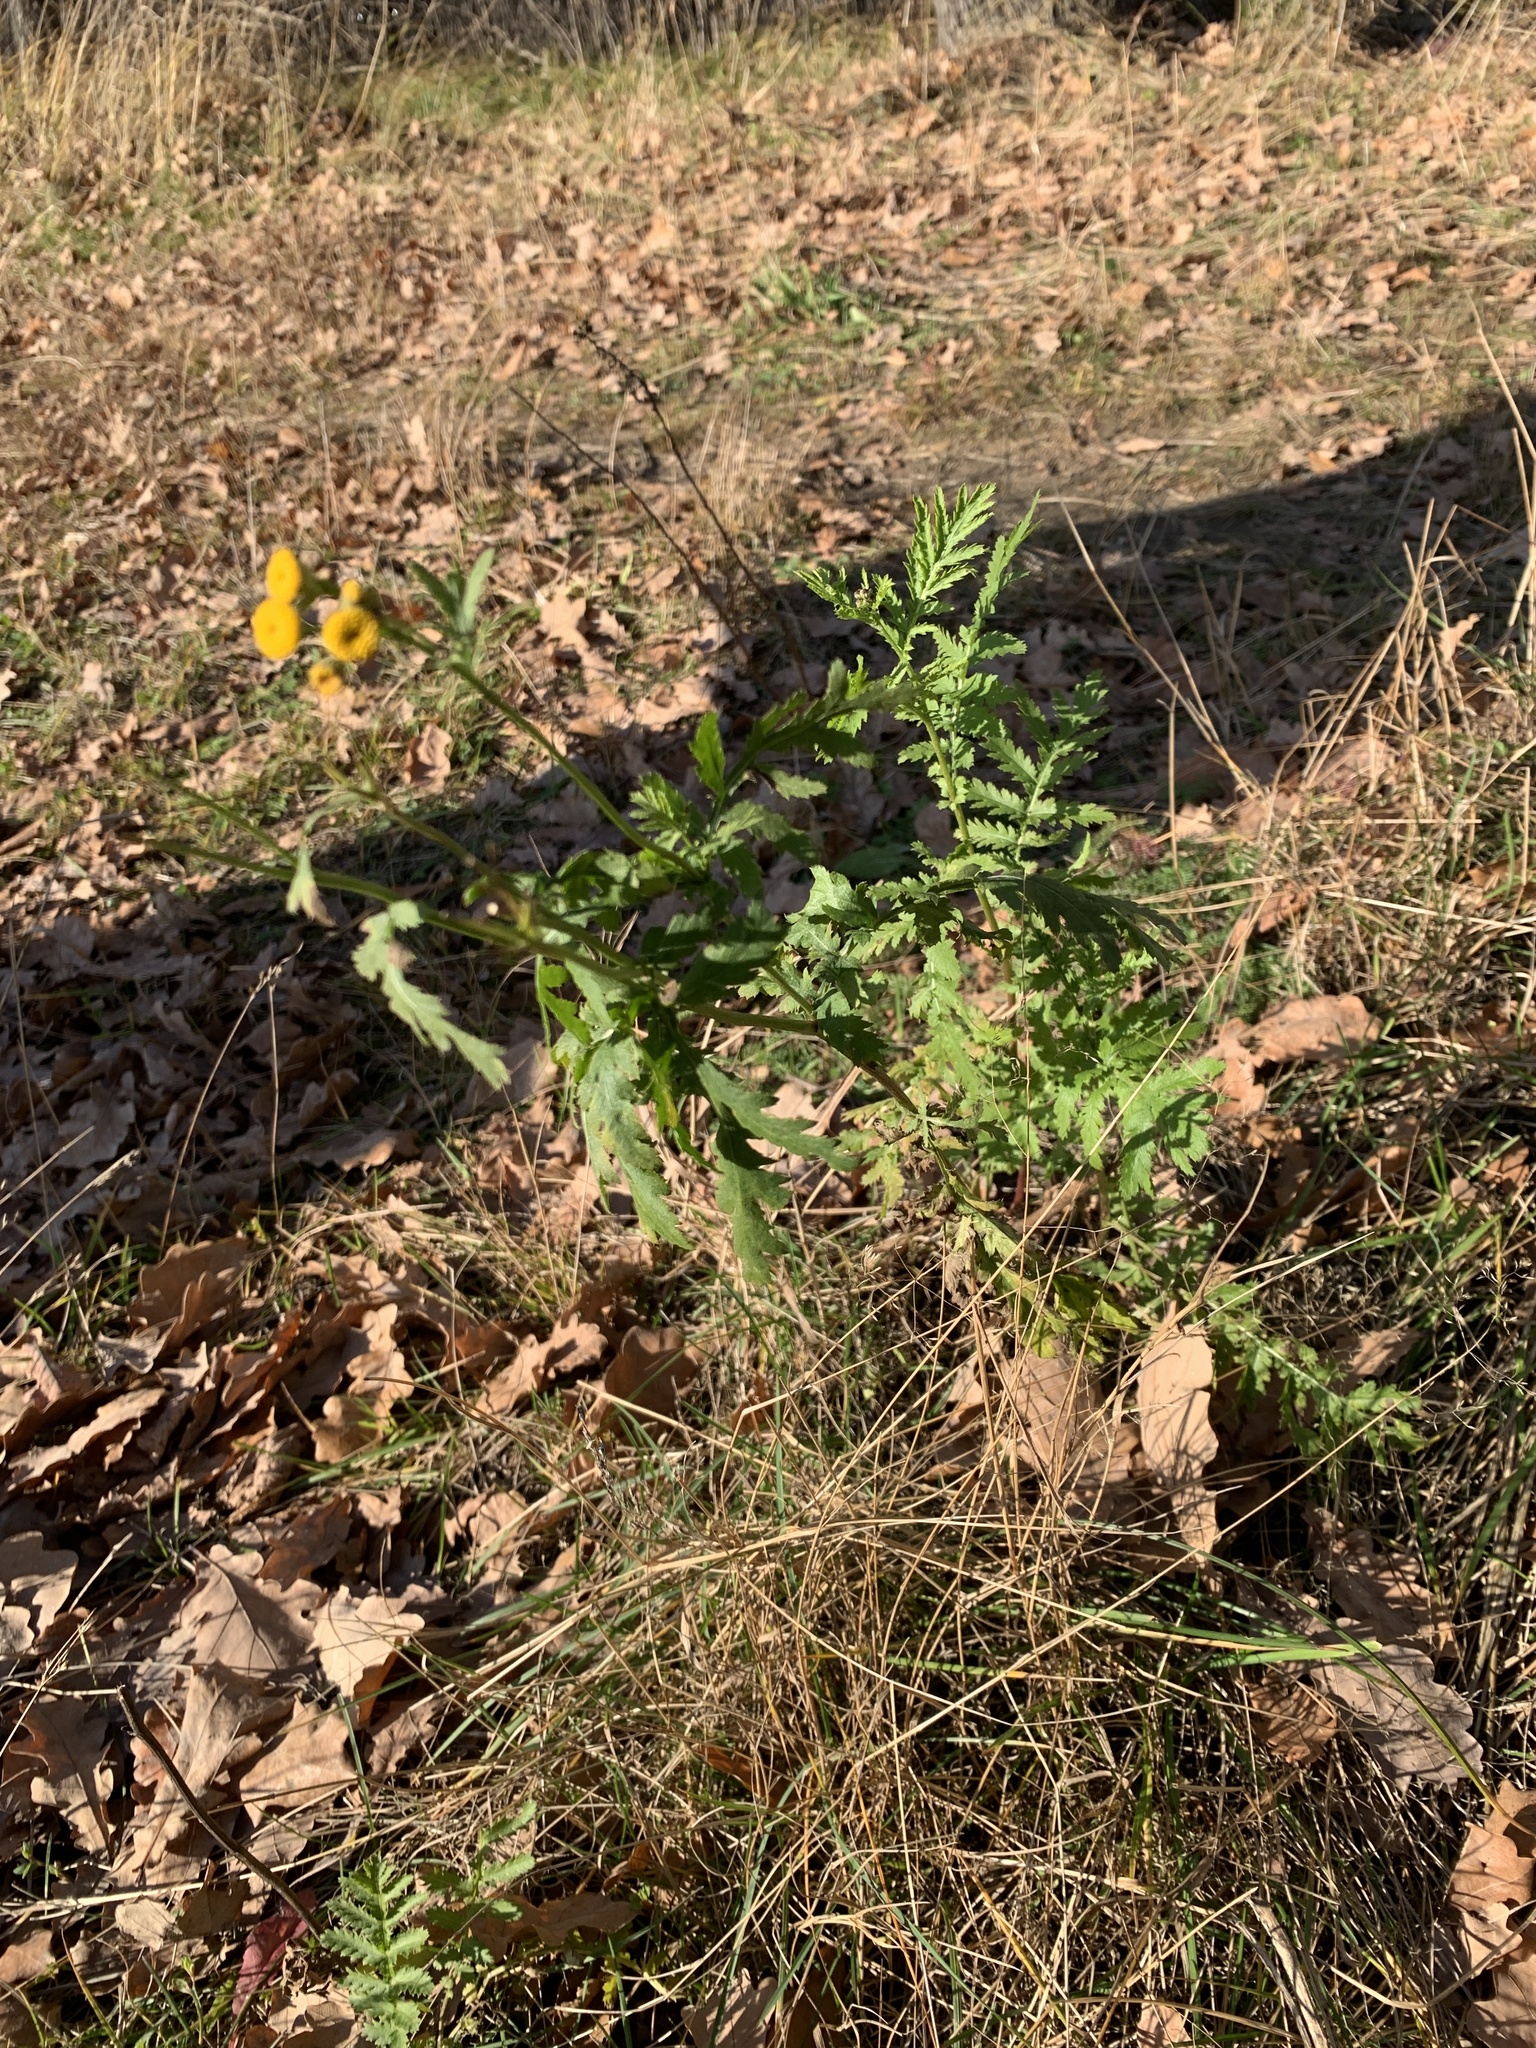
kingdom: Plantae
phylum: Tracheophyta
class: Magnoliopsida
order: Asterales
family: Asteraceae
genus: Tanacetum
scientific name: Tanacetum vulgare
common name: Common tansy
